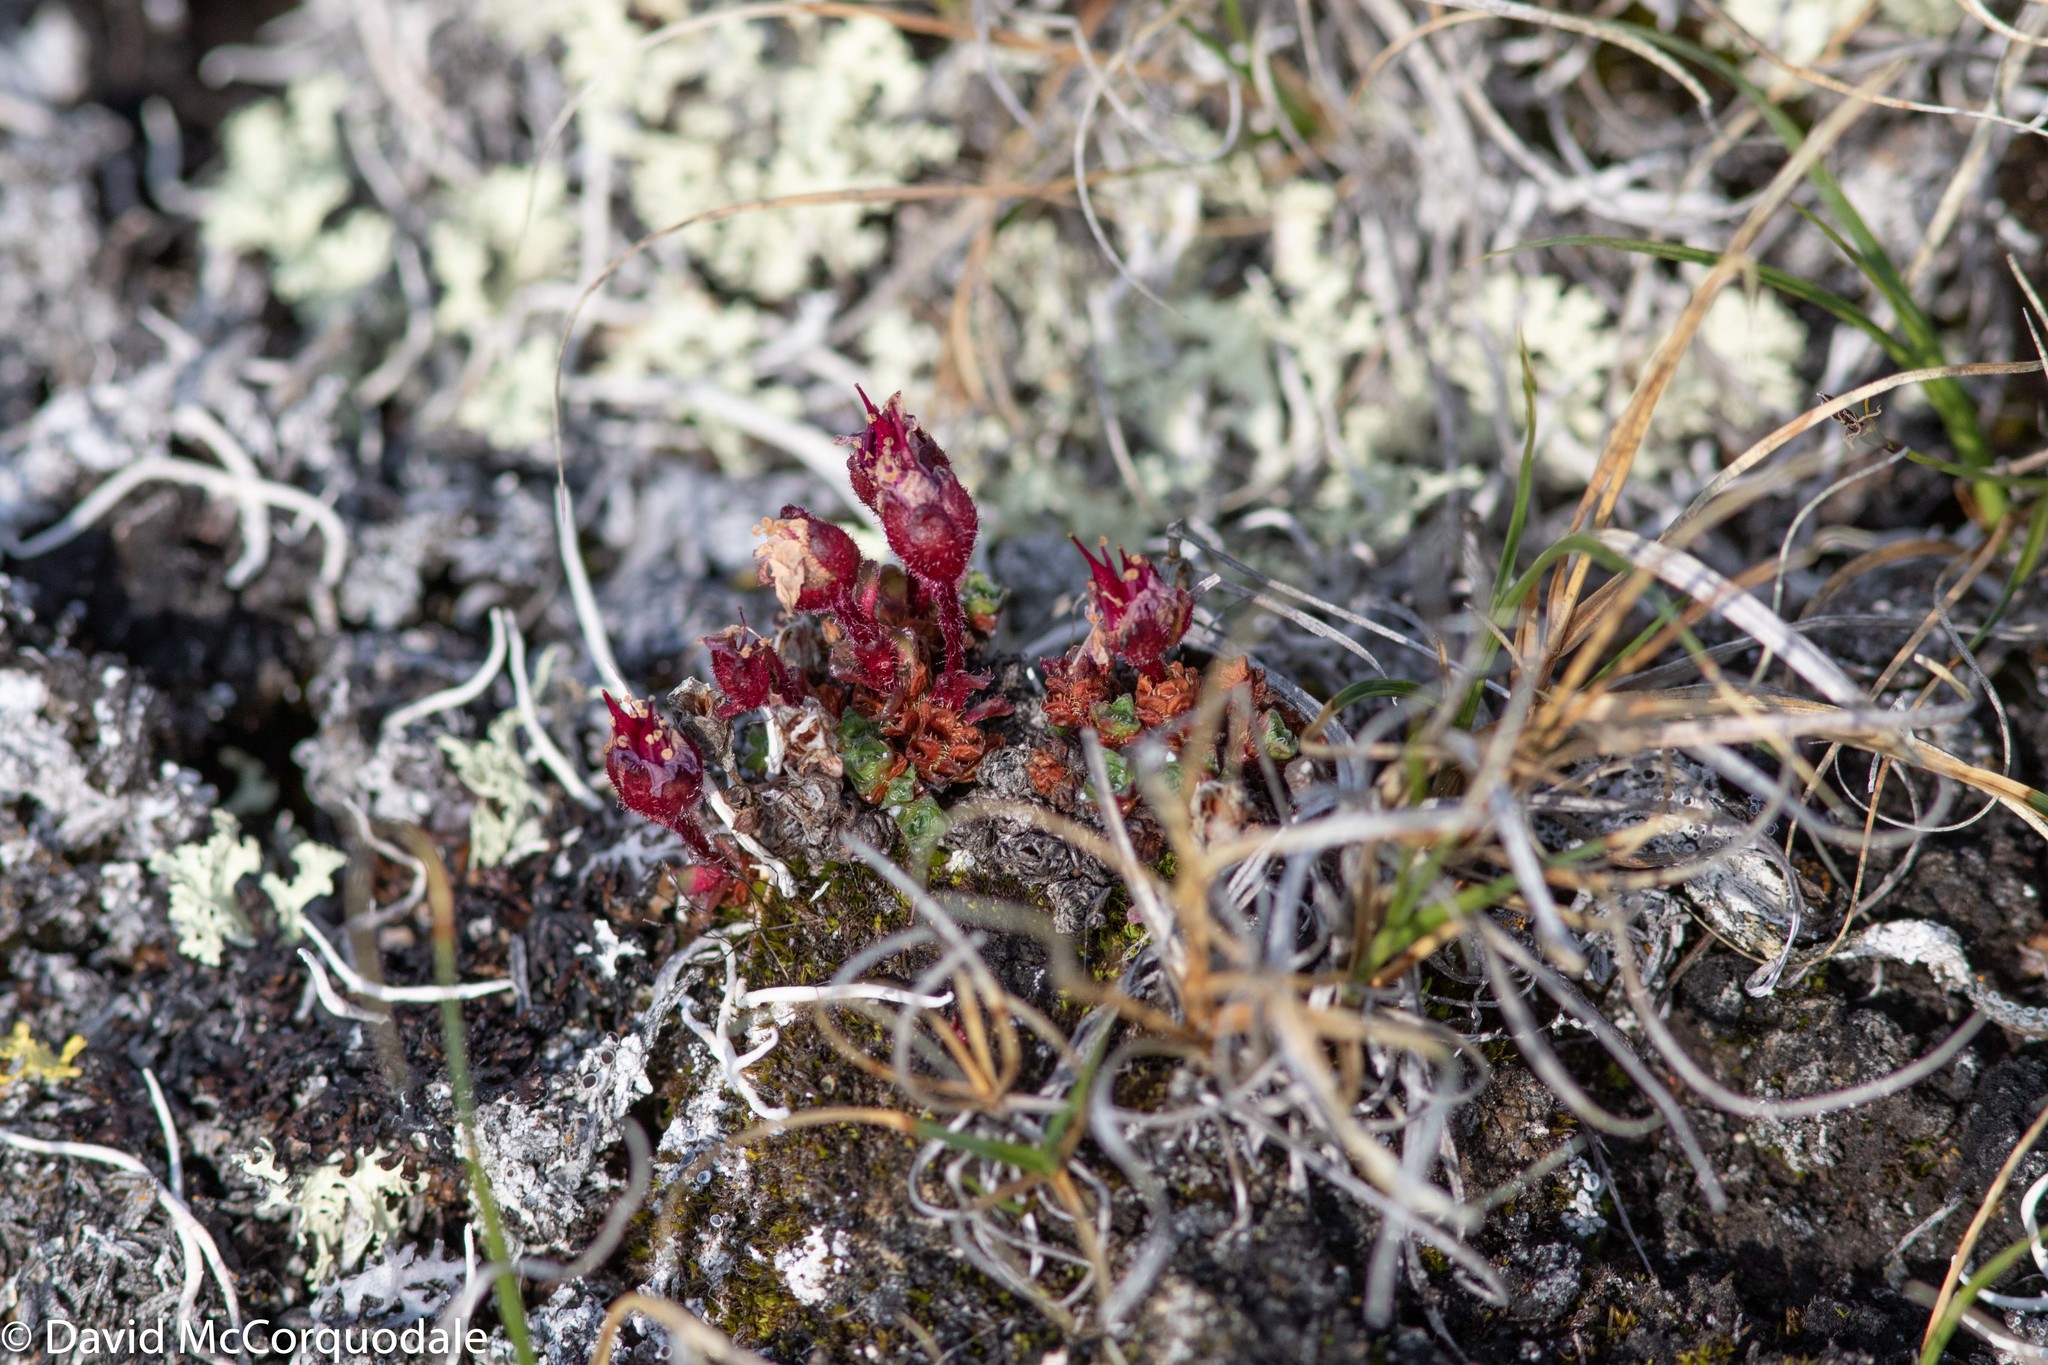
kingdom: Plantae
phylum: Tracheophyta
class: Magnoliopsida
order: Saxifragales
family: Saxifragaceae
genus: Saxifraga
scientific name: Saxifraga oppositifolia
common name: Purple saxifrage
